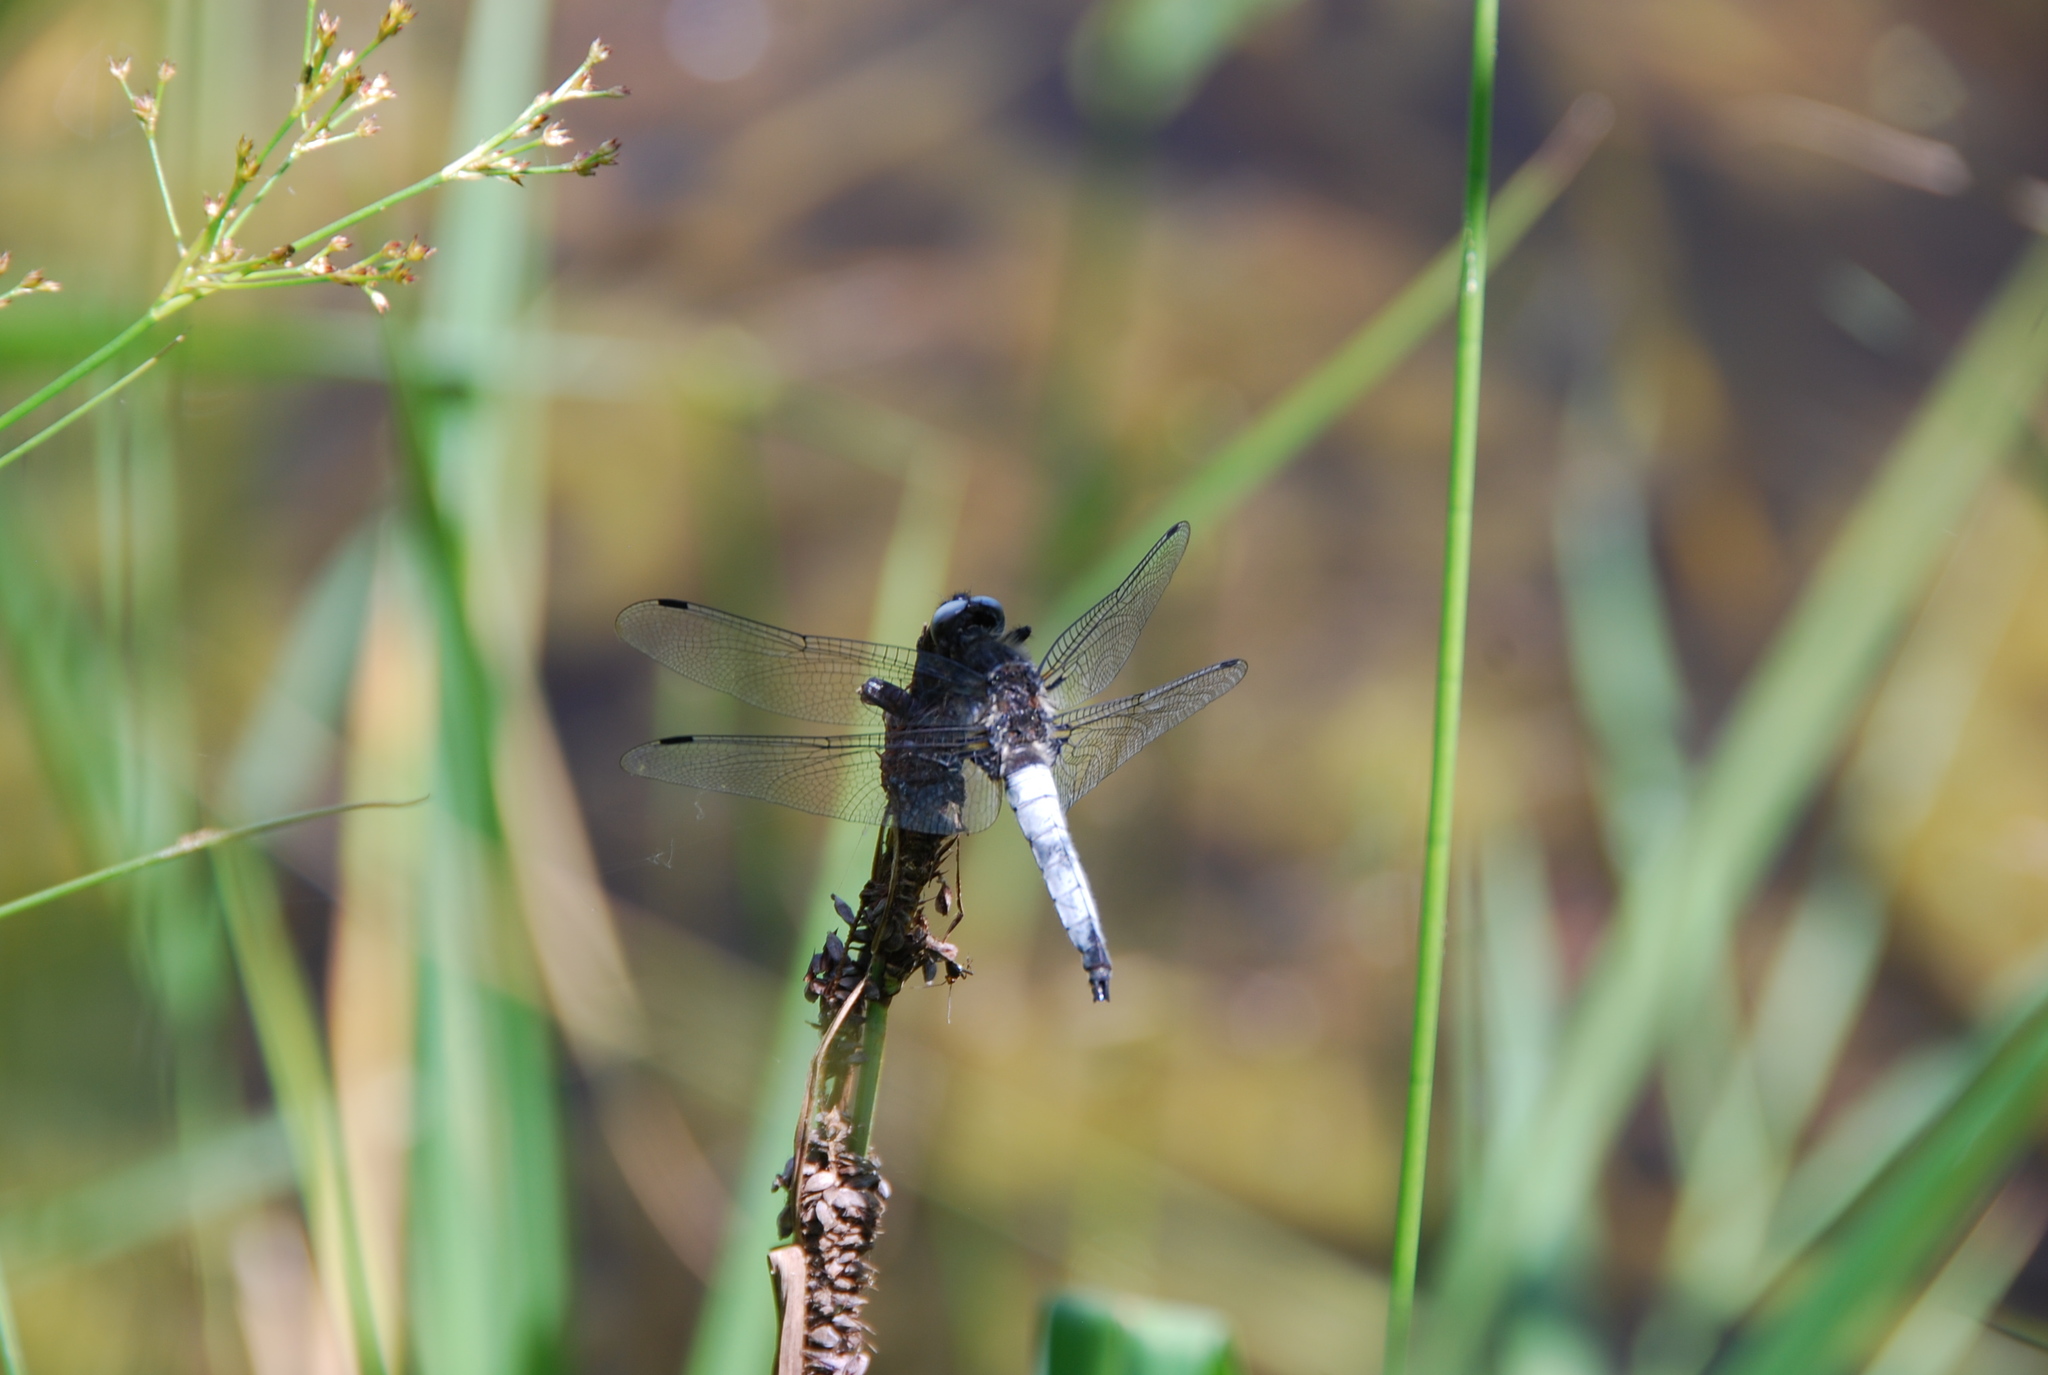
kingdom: Animalia
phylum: Arthropoda
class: Insecta
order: Odonata
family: Libellulidae
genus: Libellula
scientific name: Libellula fulva
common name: Blue chaser
